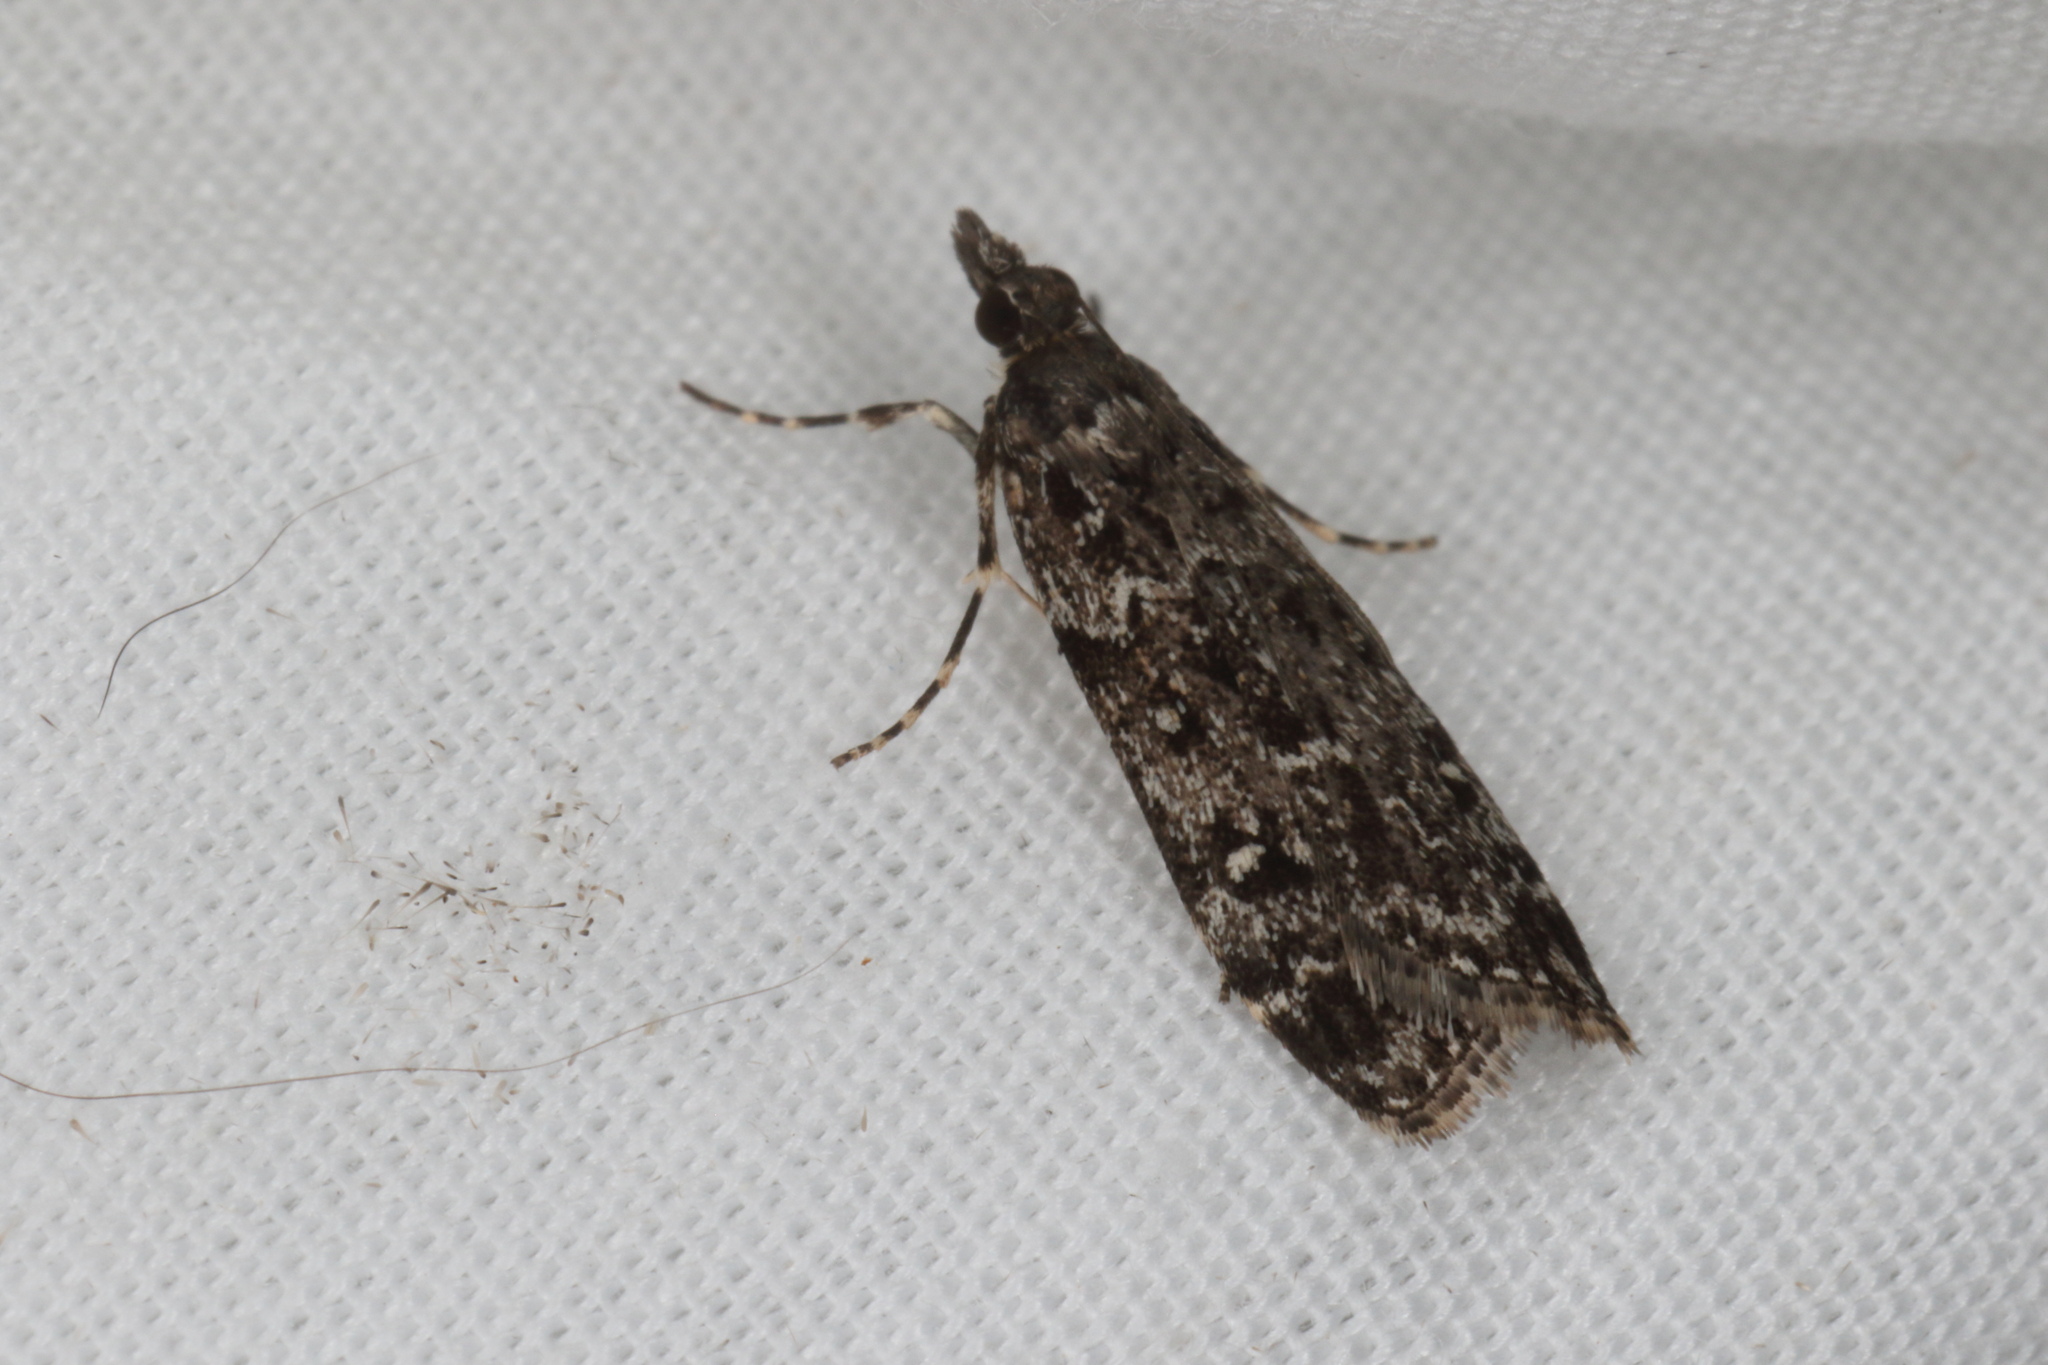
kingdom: Animalia
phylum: Arthropoda
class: Insecta
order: Lepidoptera
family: Crambidae
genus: Eudonia
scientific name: Eudonia philerga
